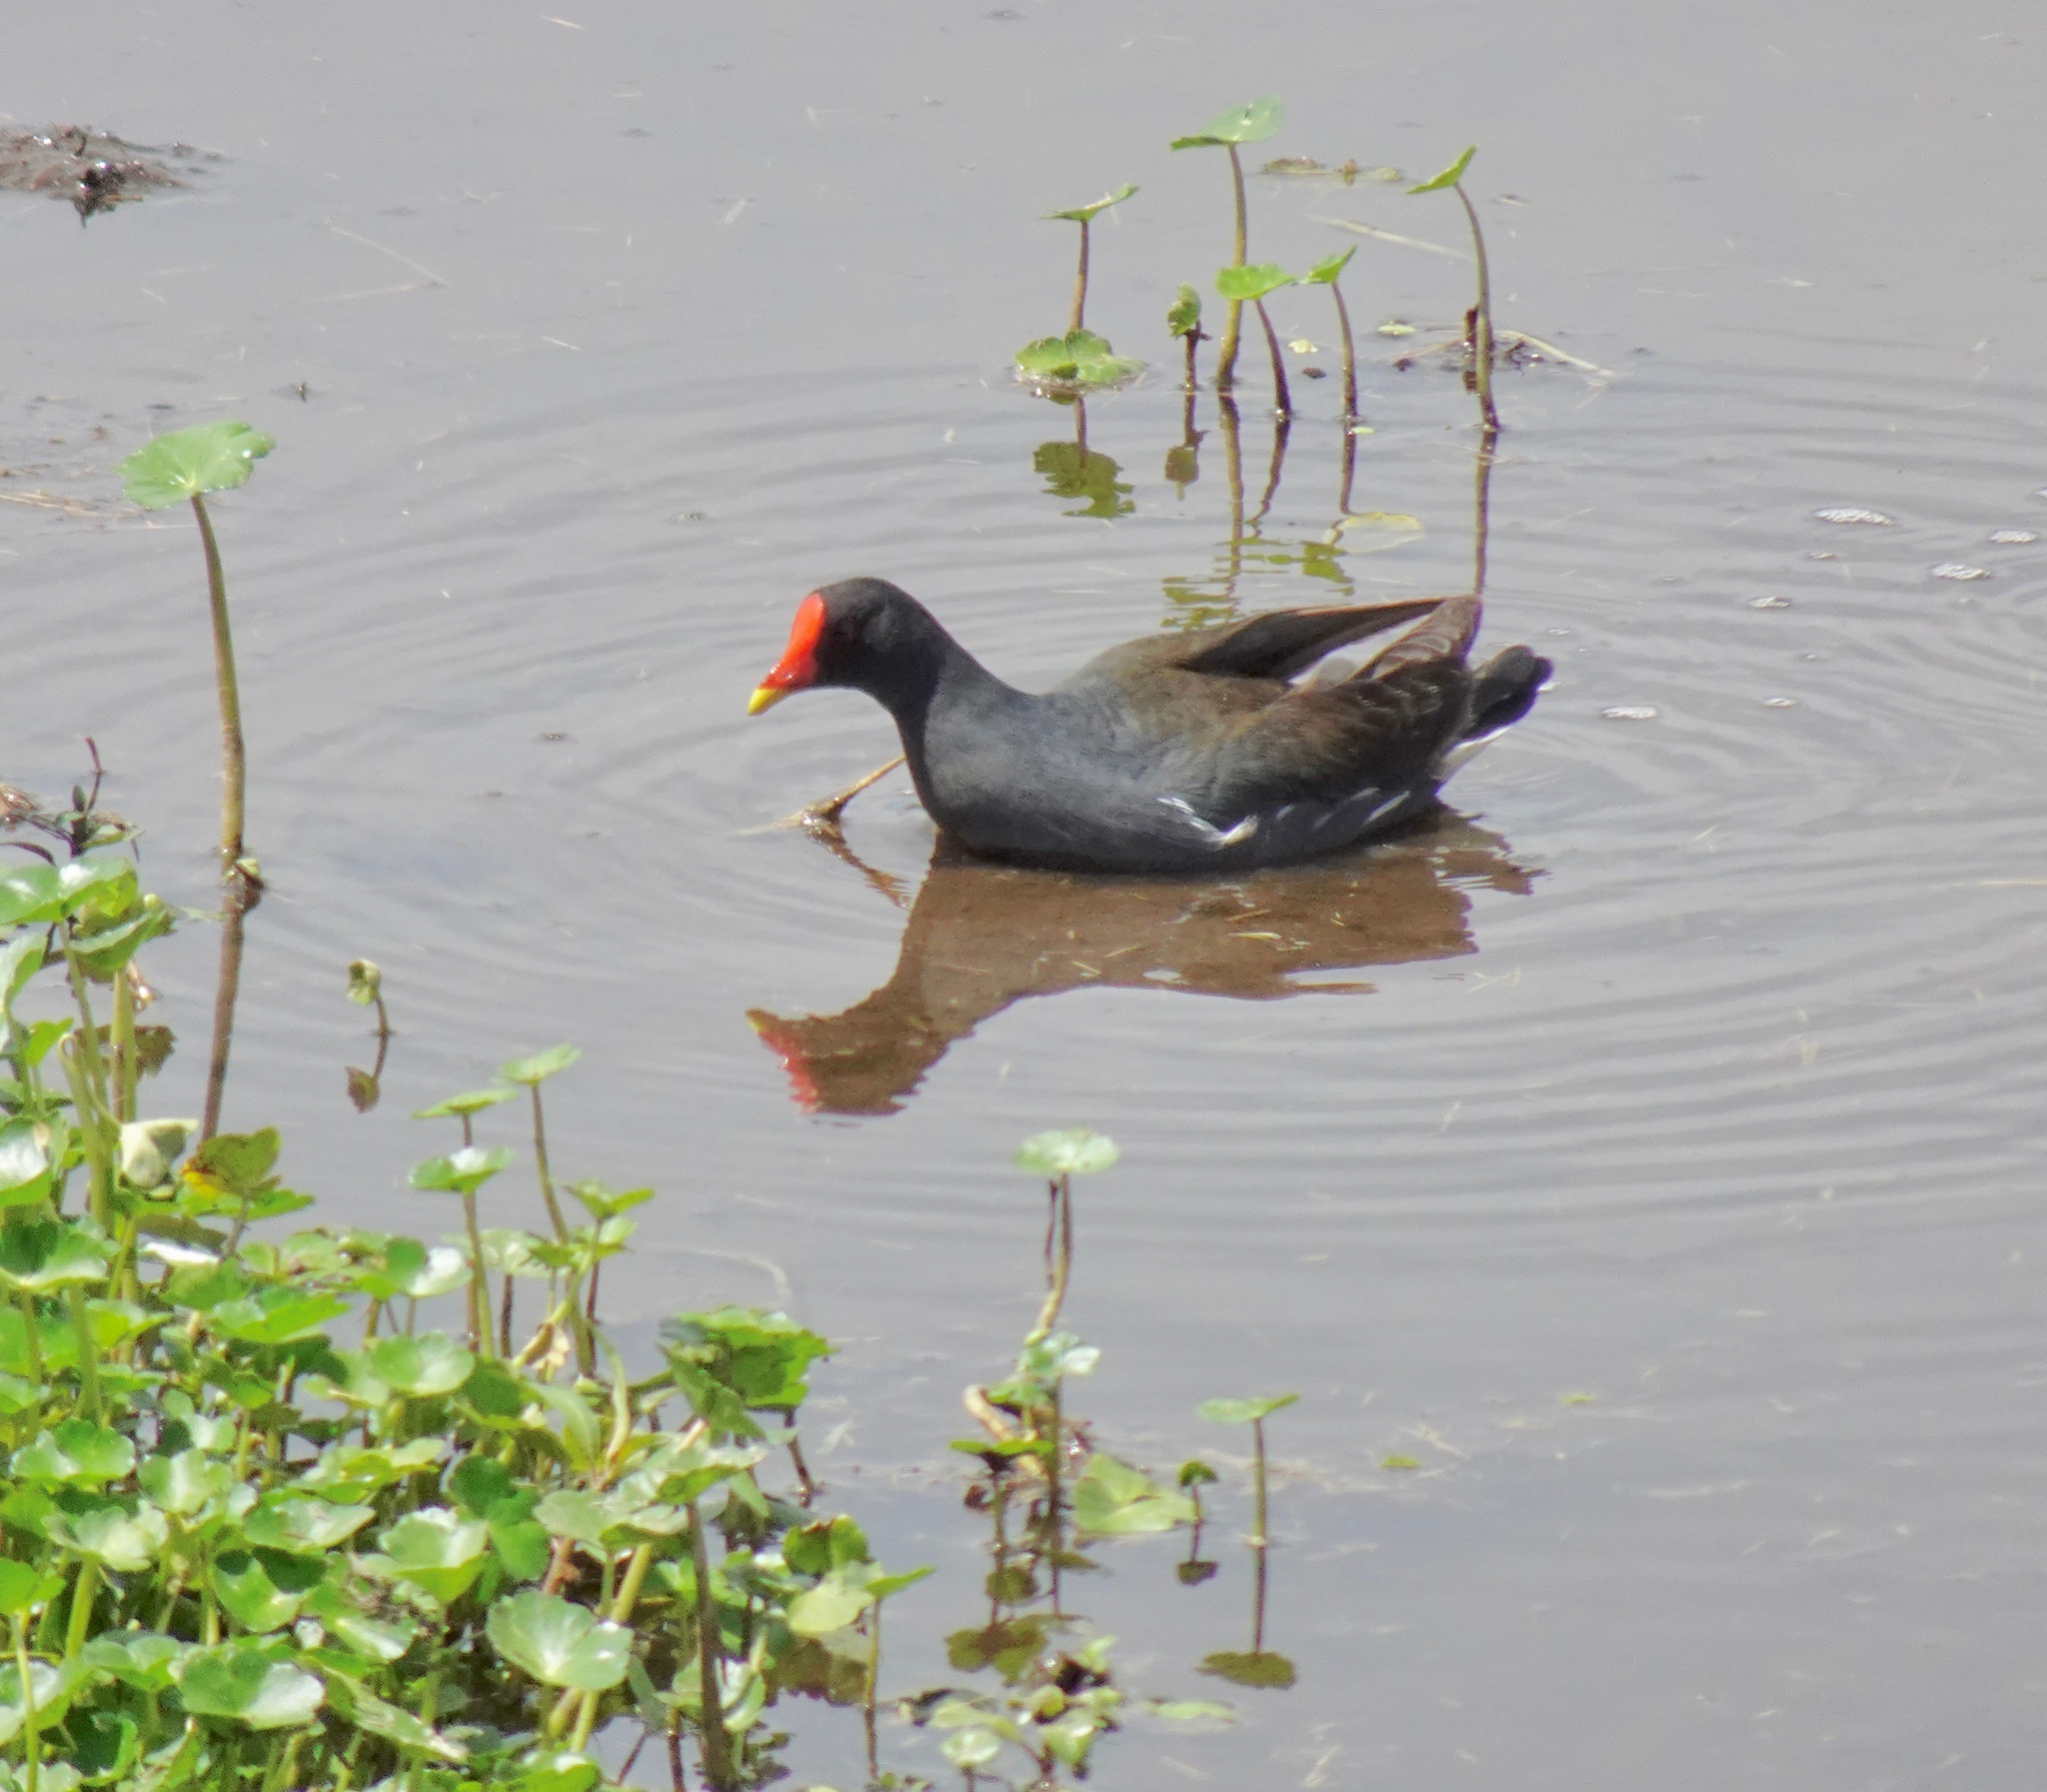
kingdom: Animalia
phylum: Chordata
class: Aves
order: Gruiformes
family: Rallidae
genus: Gallinula
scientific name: Gallinula chloropus
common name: Common moorhen
